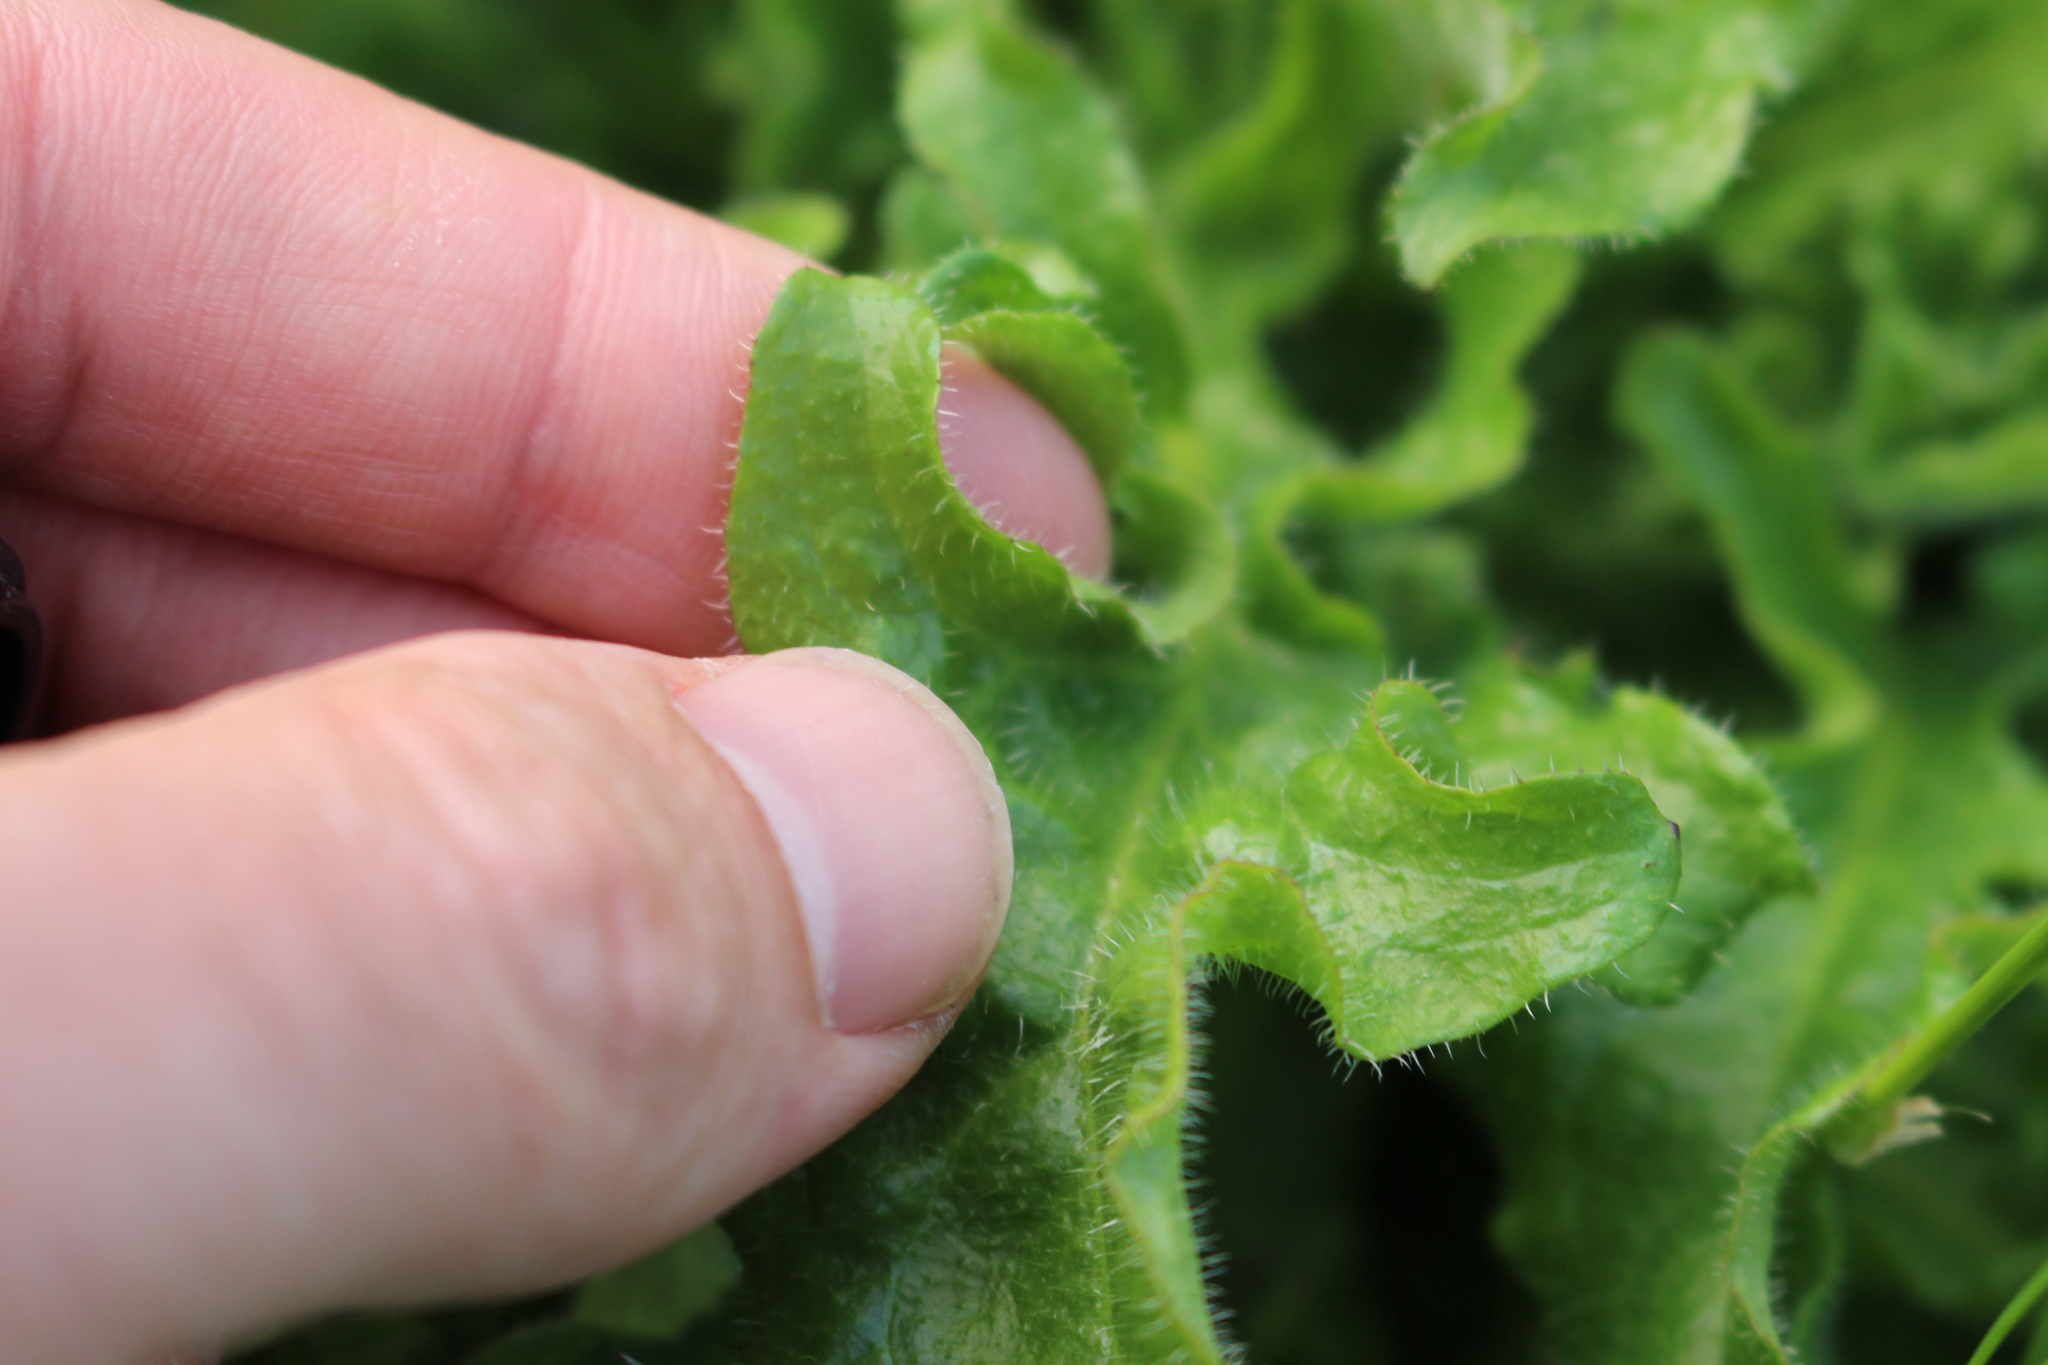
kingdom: Plantae
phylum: Tracheophyta
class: Magnoliopsida
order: Asterales
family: Asteraceae
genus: Hypochaeris
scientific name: Hypochaeris radicata
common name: Flatweed
